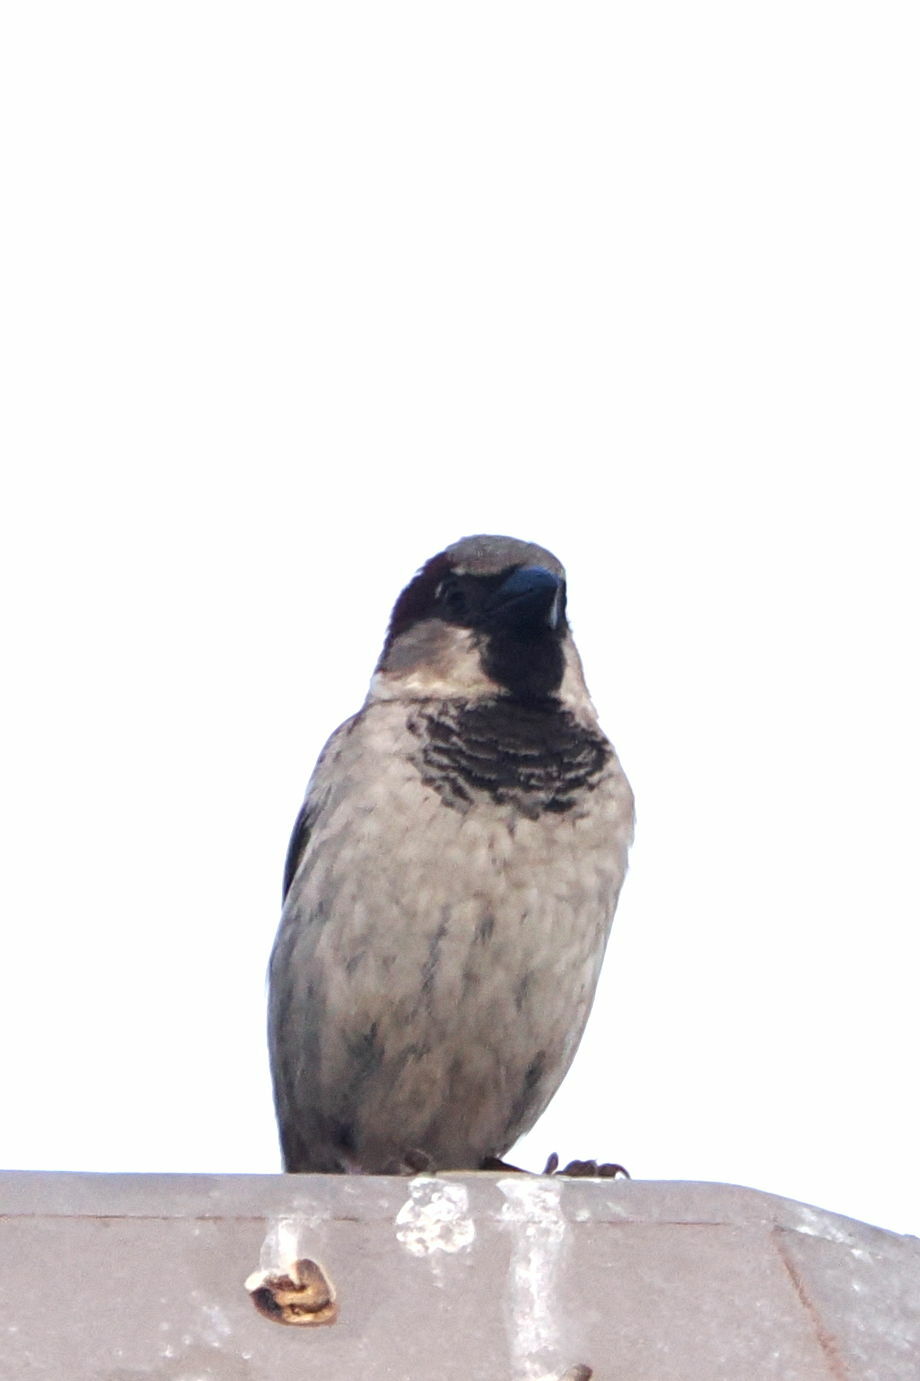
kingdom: Animalia
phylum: Chordata
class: Aves
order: Passeriformes
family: Passeridae
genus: Passer
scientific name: Passer domesticus
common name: House sparrow
